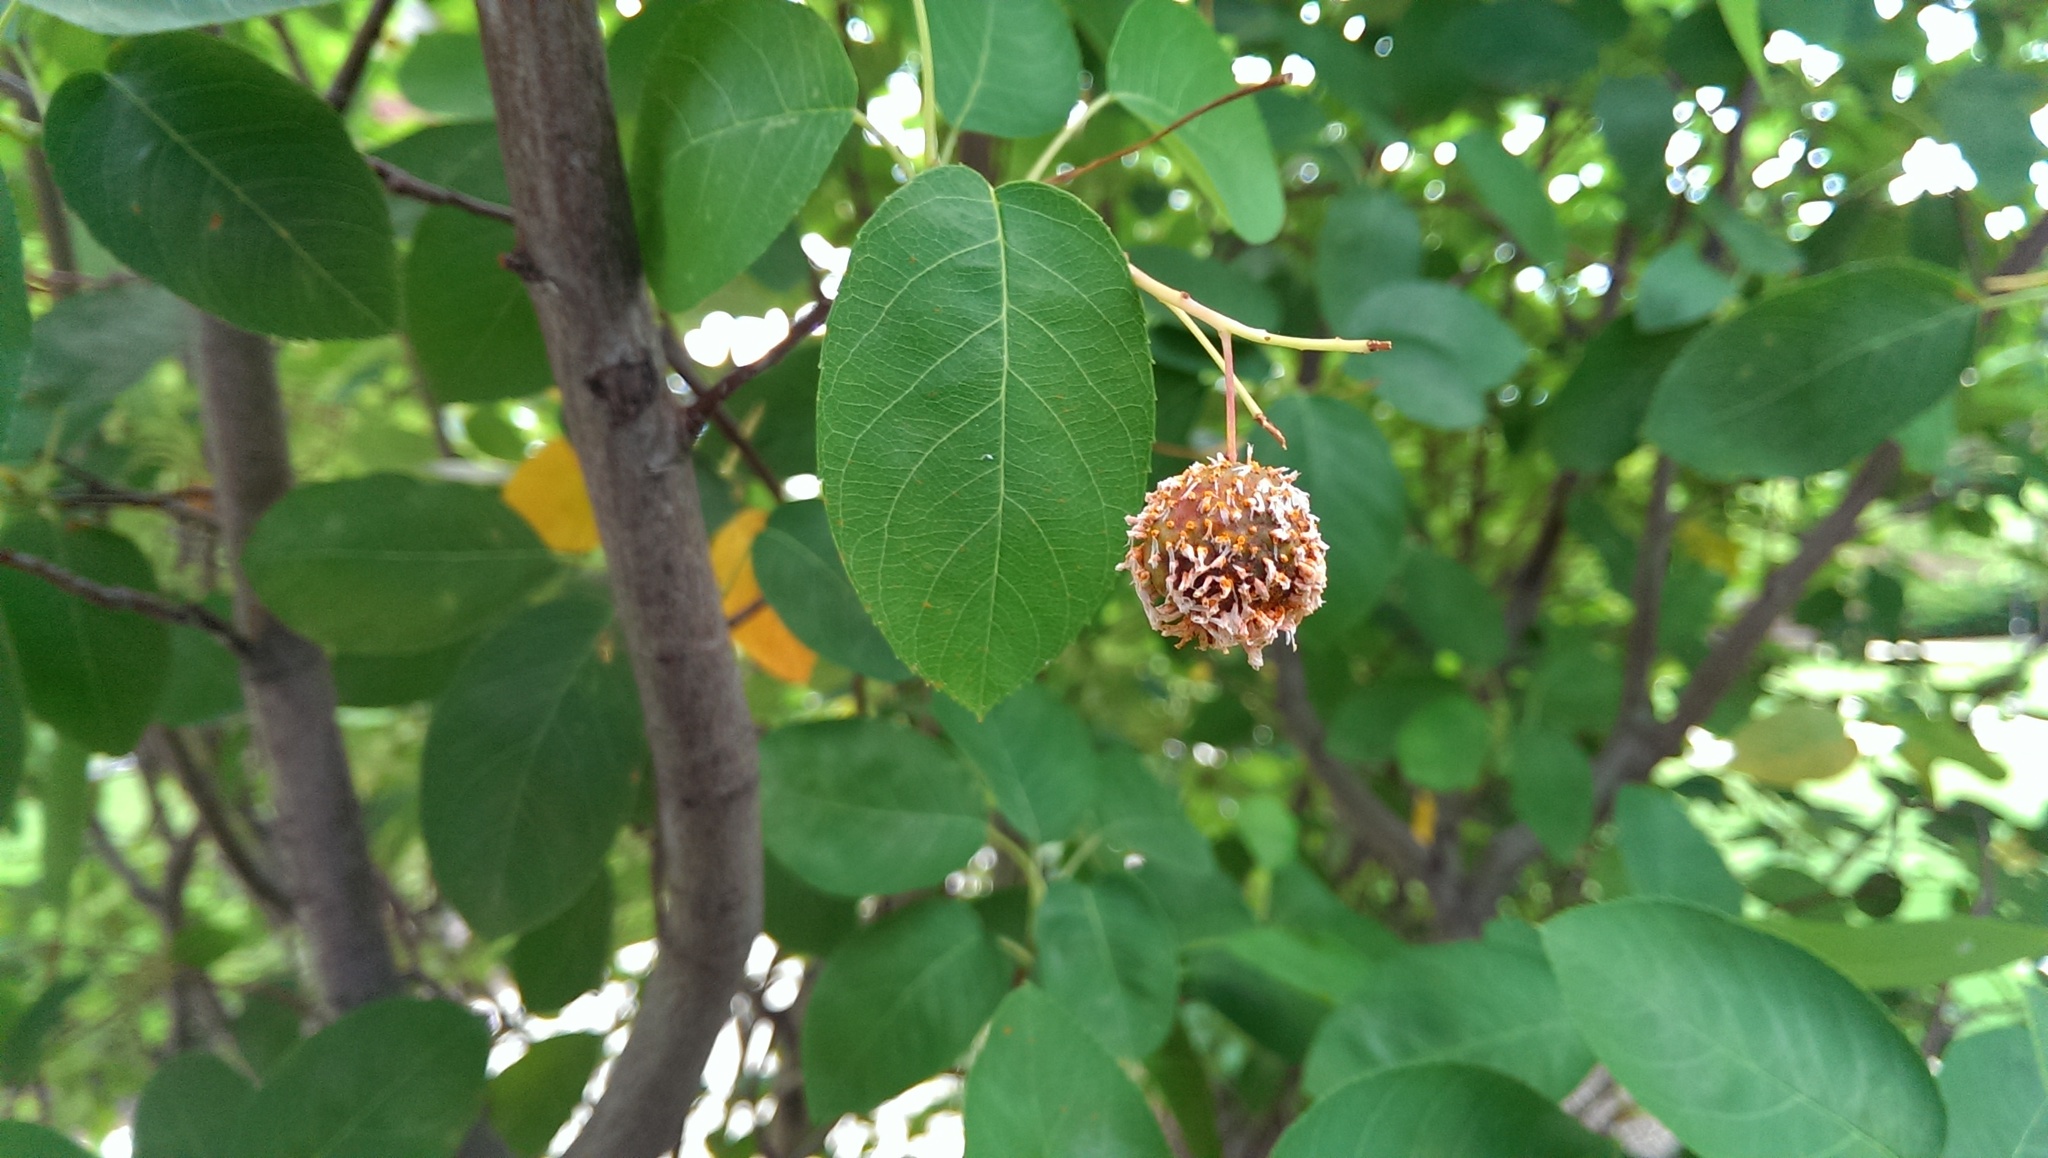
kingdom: Fungi
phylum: Basidiomycota
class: Pucciniomycetes
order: Pucciniales
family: Gymnosporangiaceae
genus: Gymnosporangium
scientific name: Gymnosporangium clavipes
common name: Quince rust
